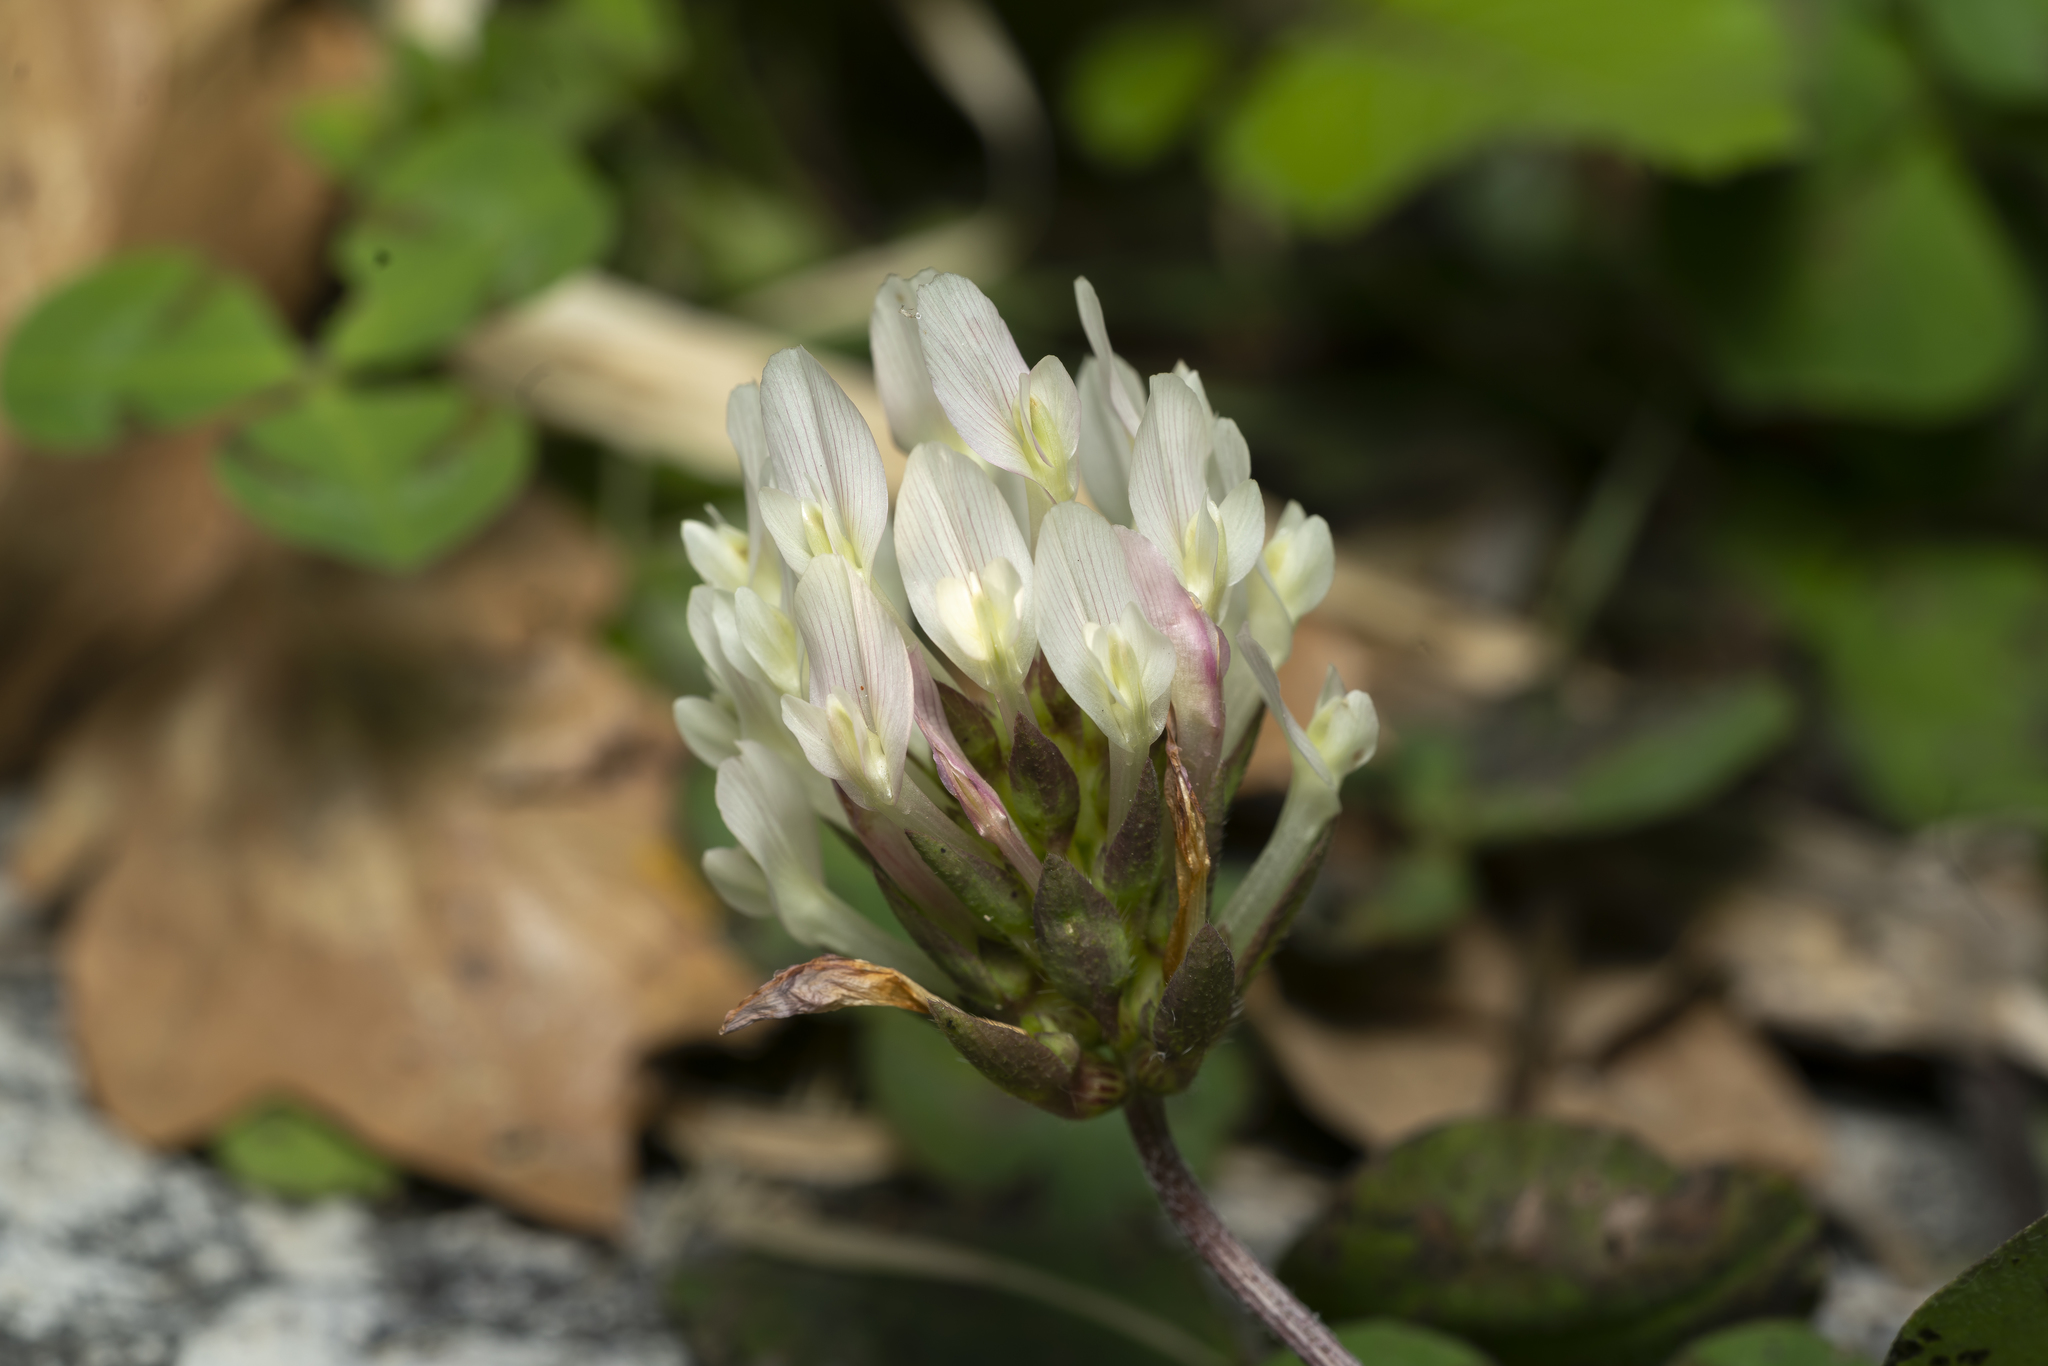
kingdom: Plantae
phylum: Tracheophyta
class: Magnoliopsida
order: Fabales
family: Fabaceae
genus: Trifolium
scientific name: Trifolium clypeatum
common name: Shield clover
